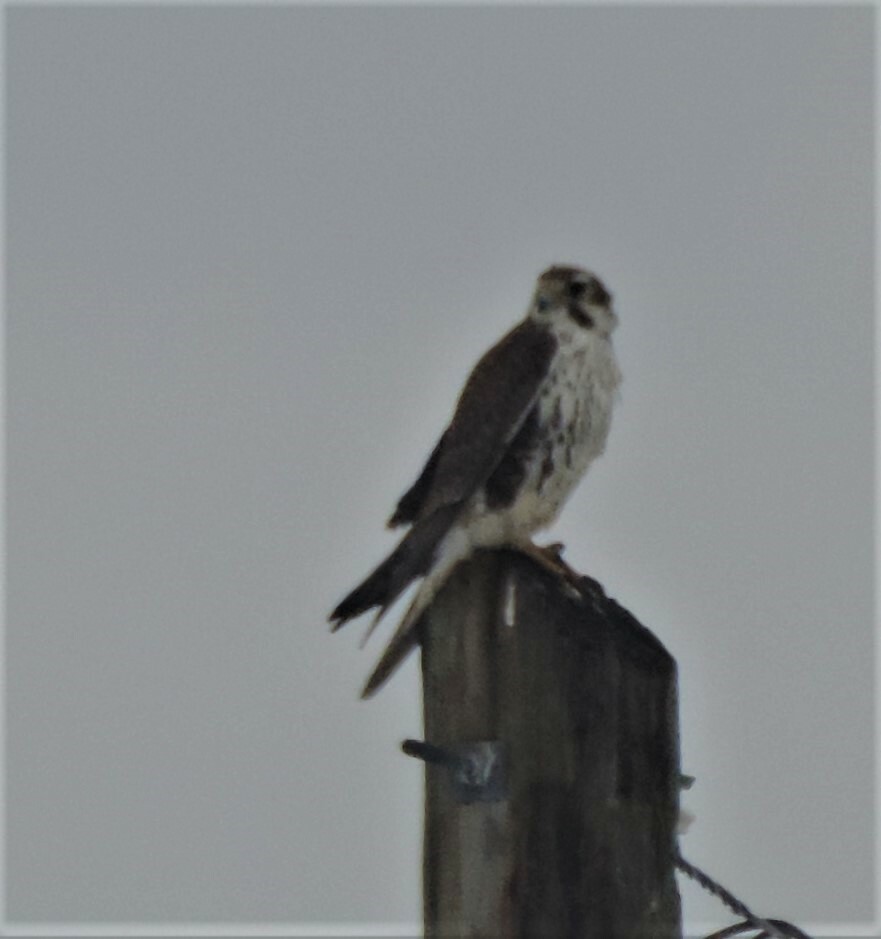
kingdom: Animalia
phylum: Chordata
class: Aves
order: Falconiformes
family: Falconidae
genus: Falco
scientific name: Falco mexicanus
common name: Prairie falcon
